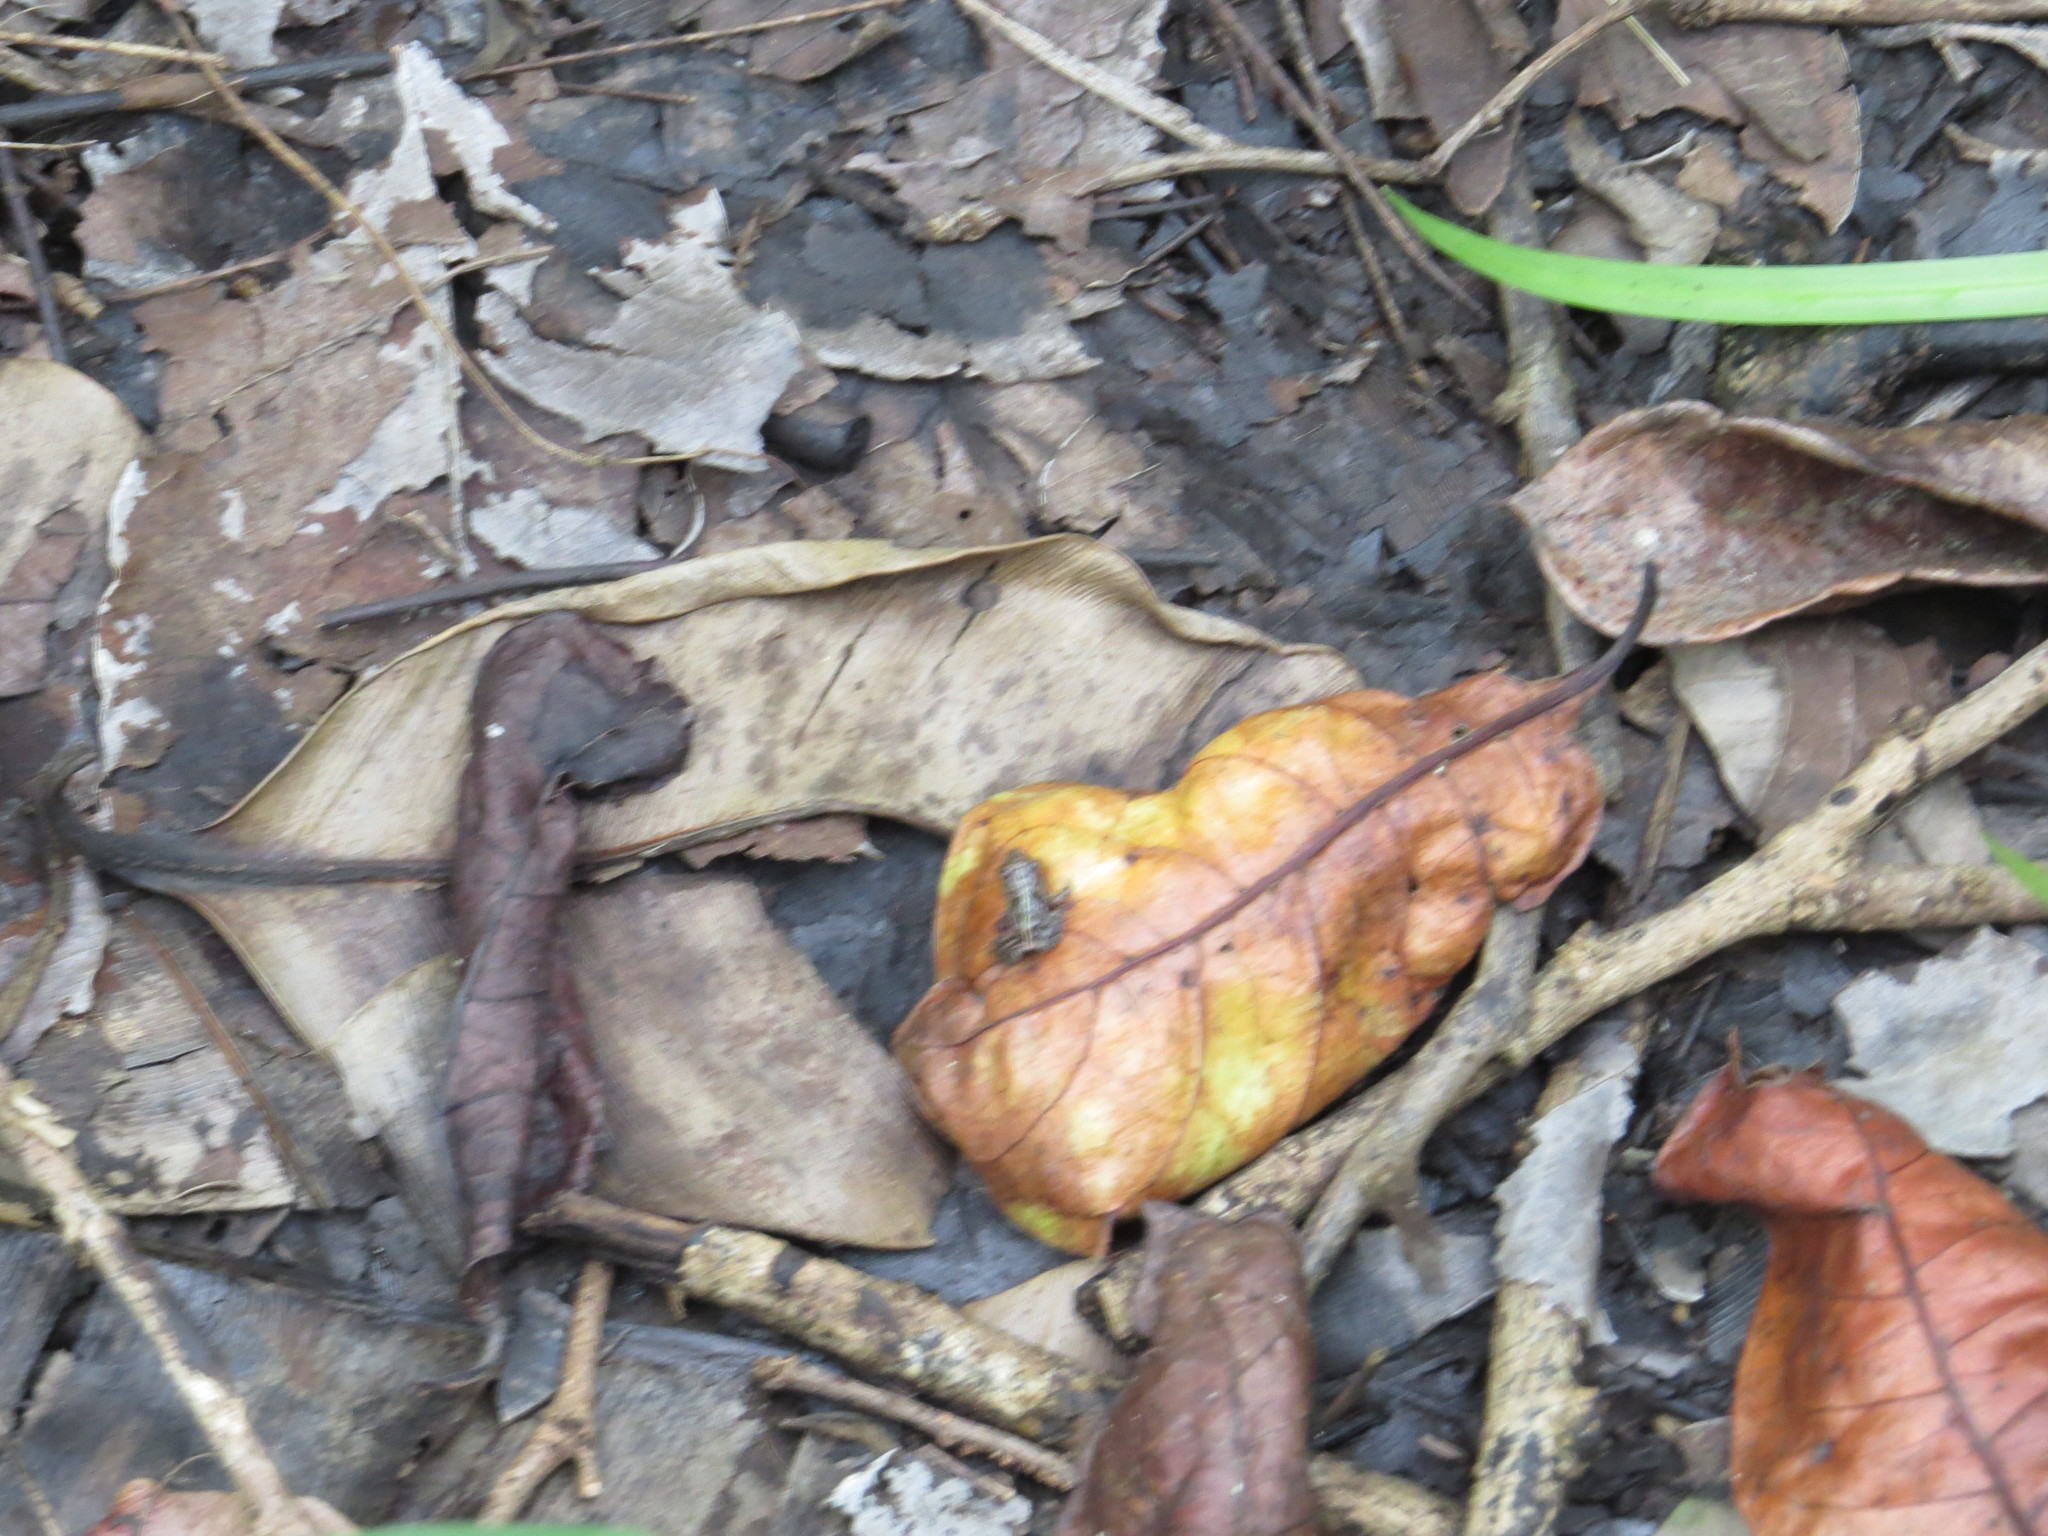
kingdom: Animalia
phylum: Chordata
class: Amphibia
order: Anura
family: Hyperoliidae
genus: Kassina
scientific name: Kassina jozani
